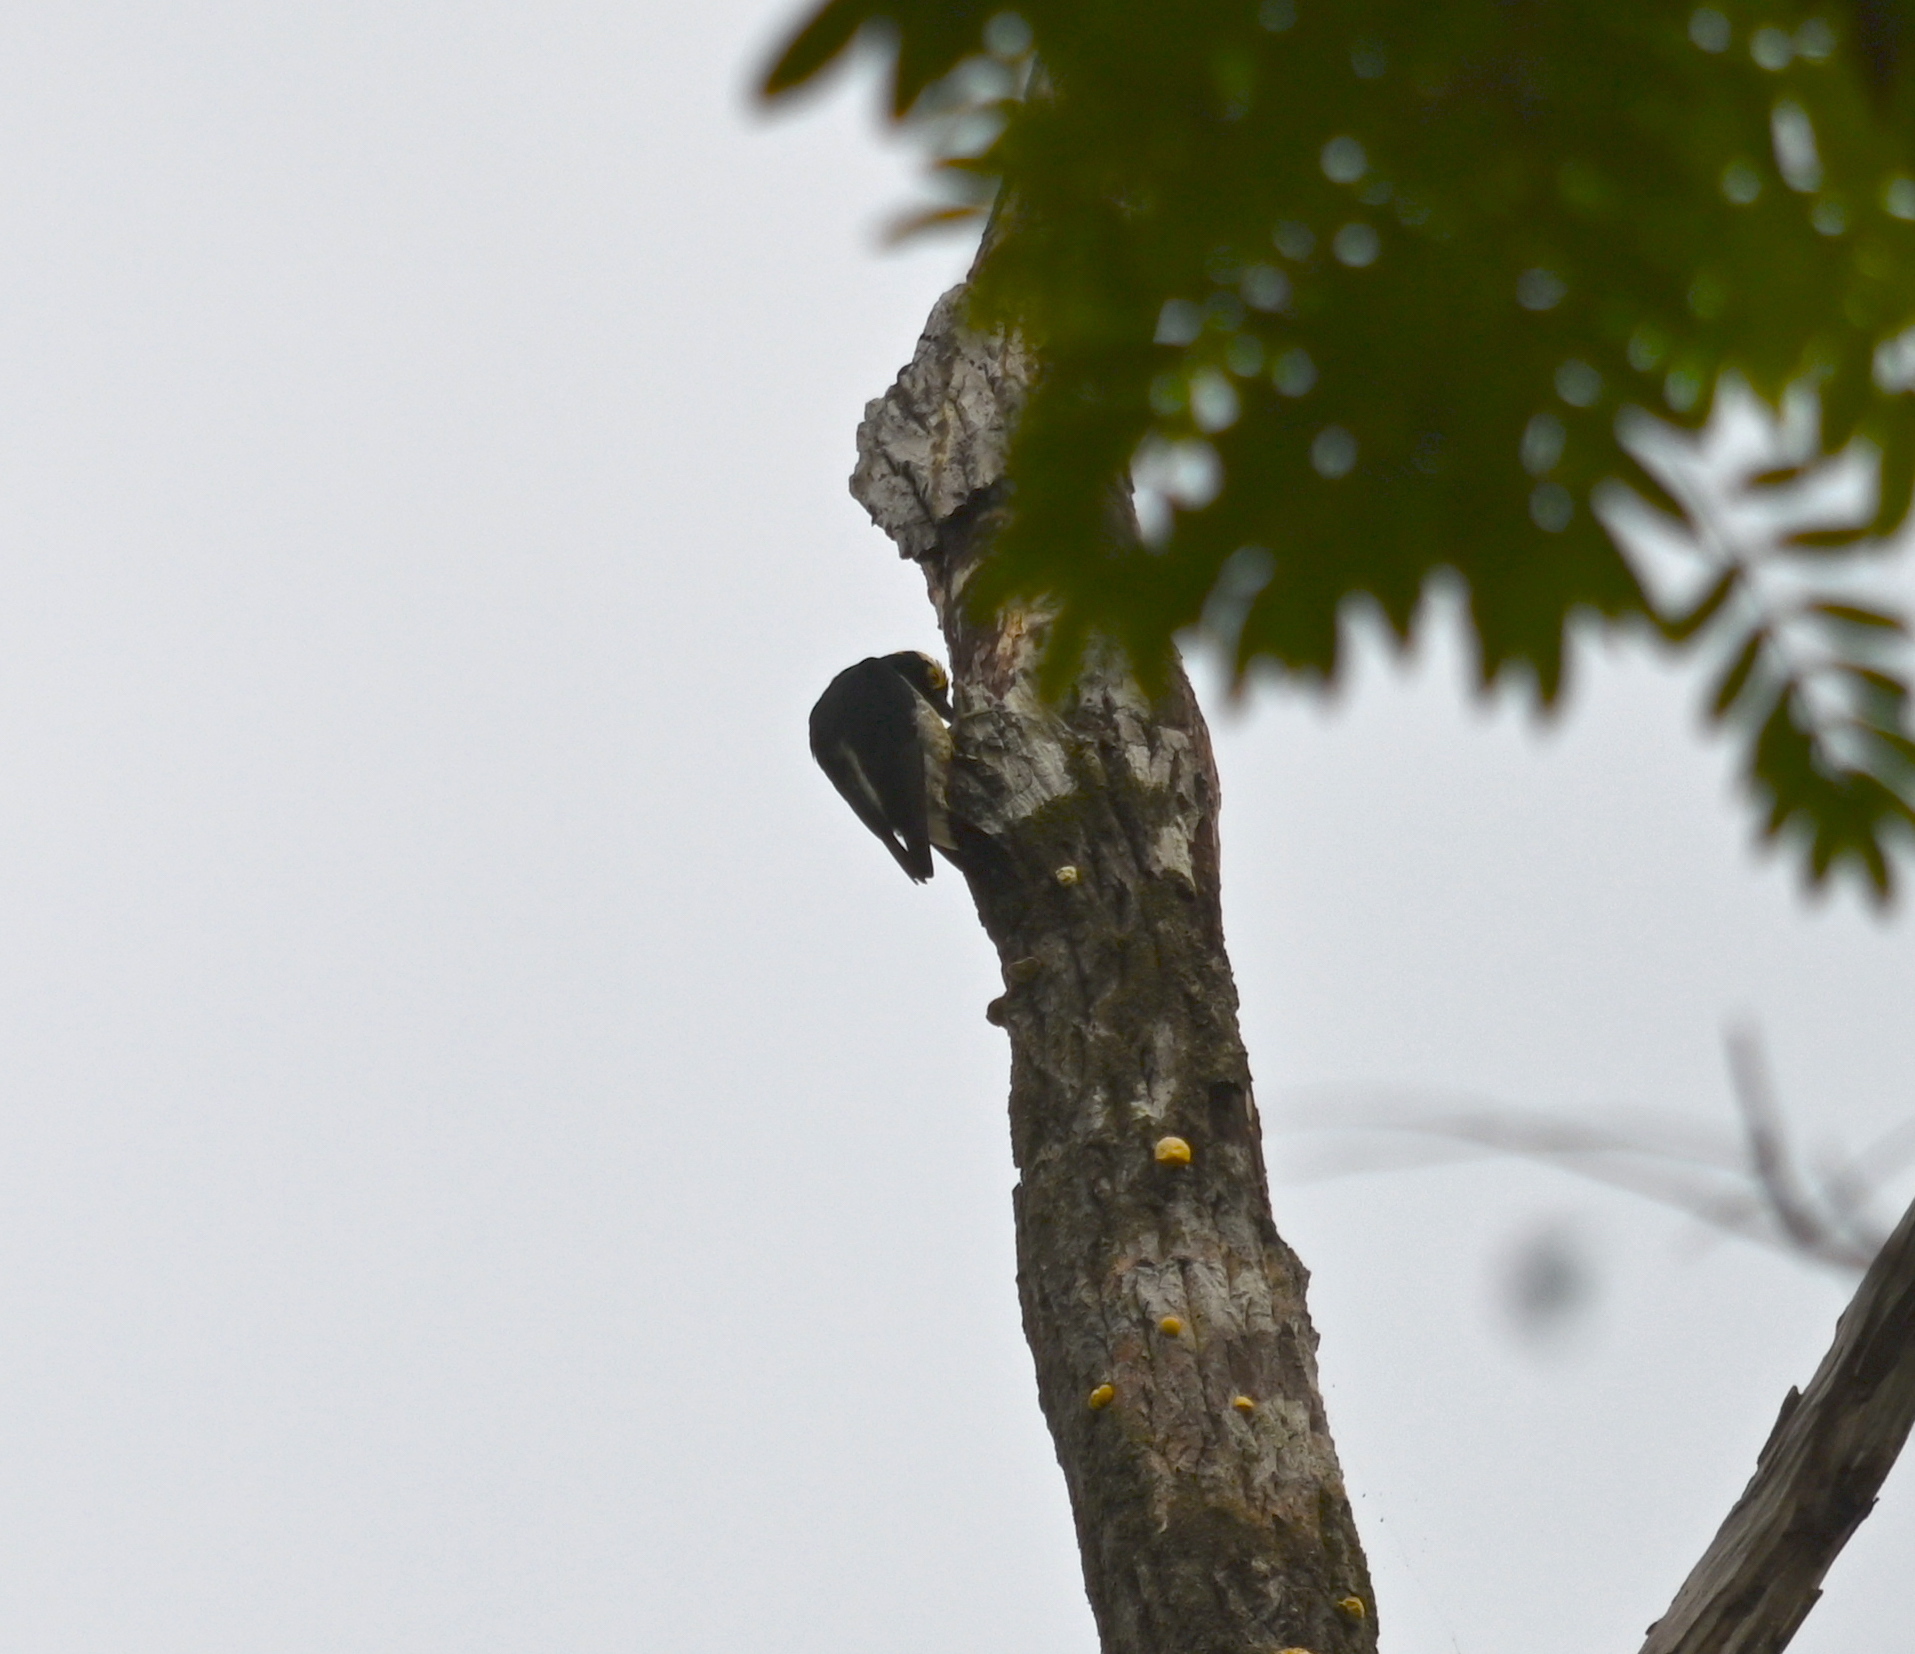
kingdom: Animalia
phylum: Chordata
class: Aves
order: Piciformes
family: Picidae
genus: Melanerpes
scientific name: Melanerpes cruentatus
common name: Yellow-tufted woodpecker
